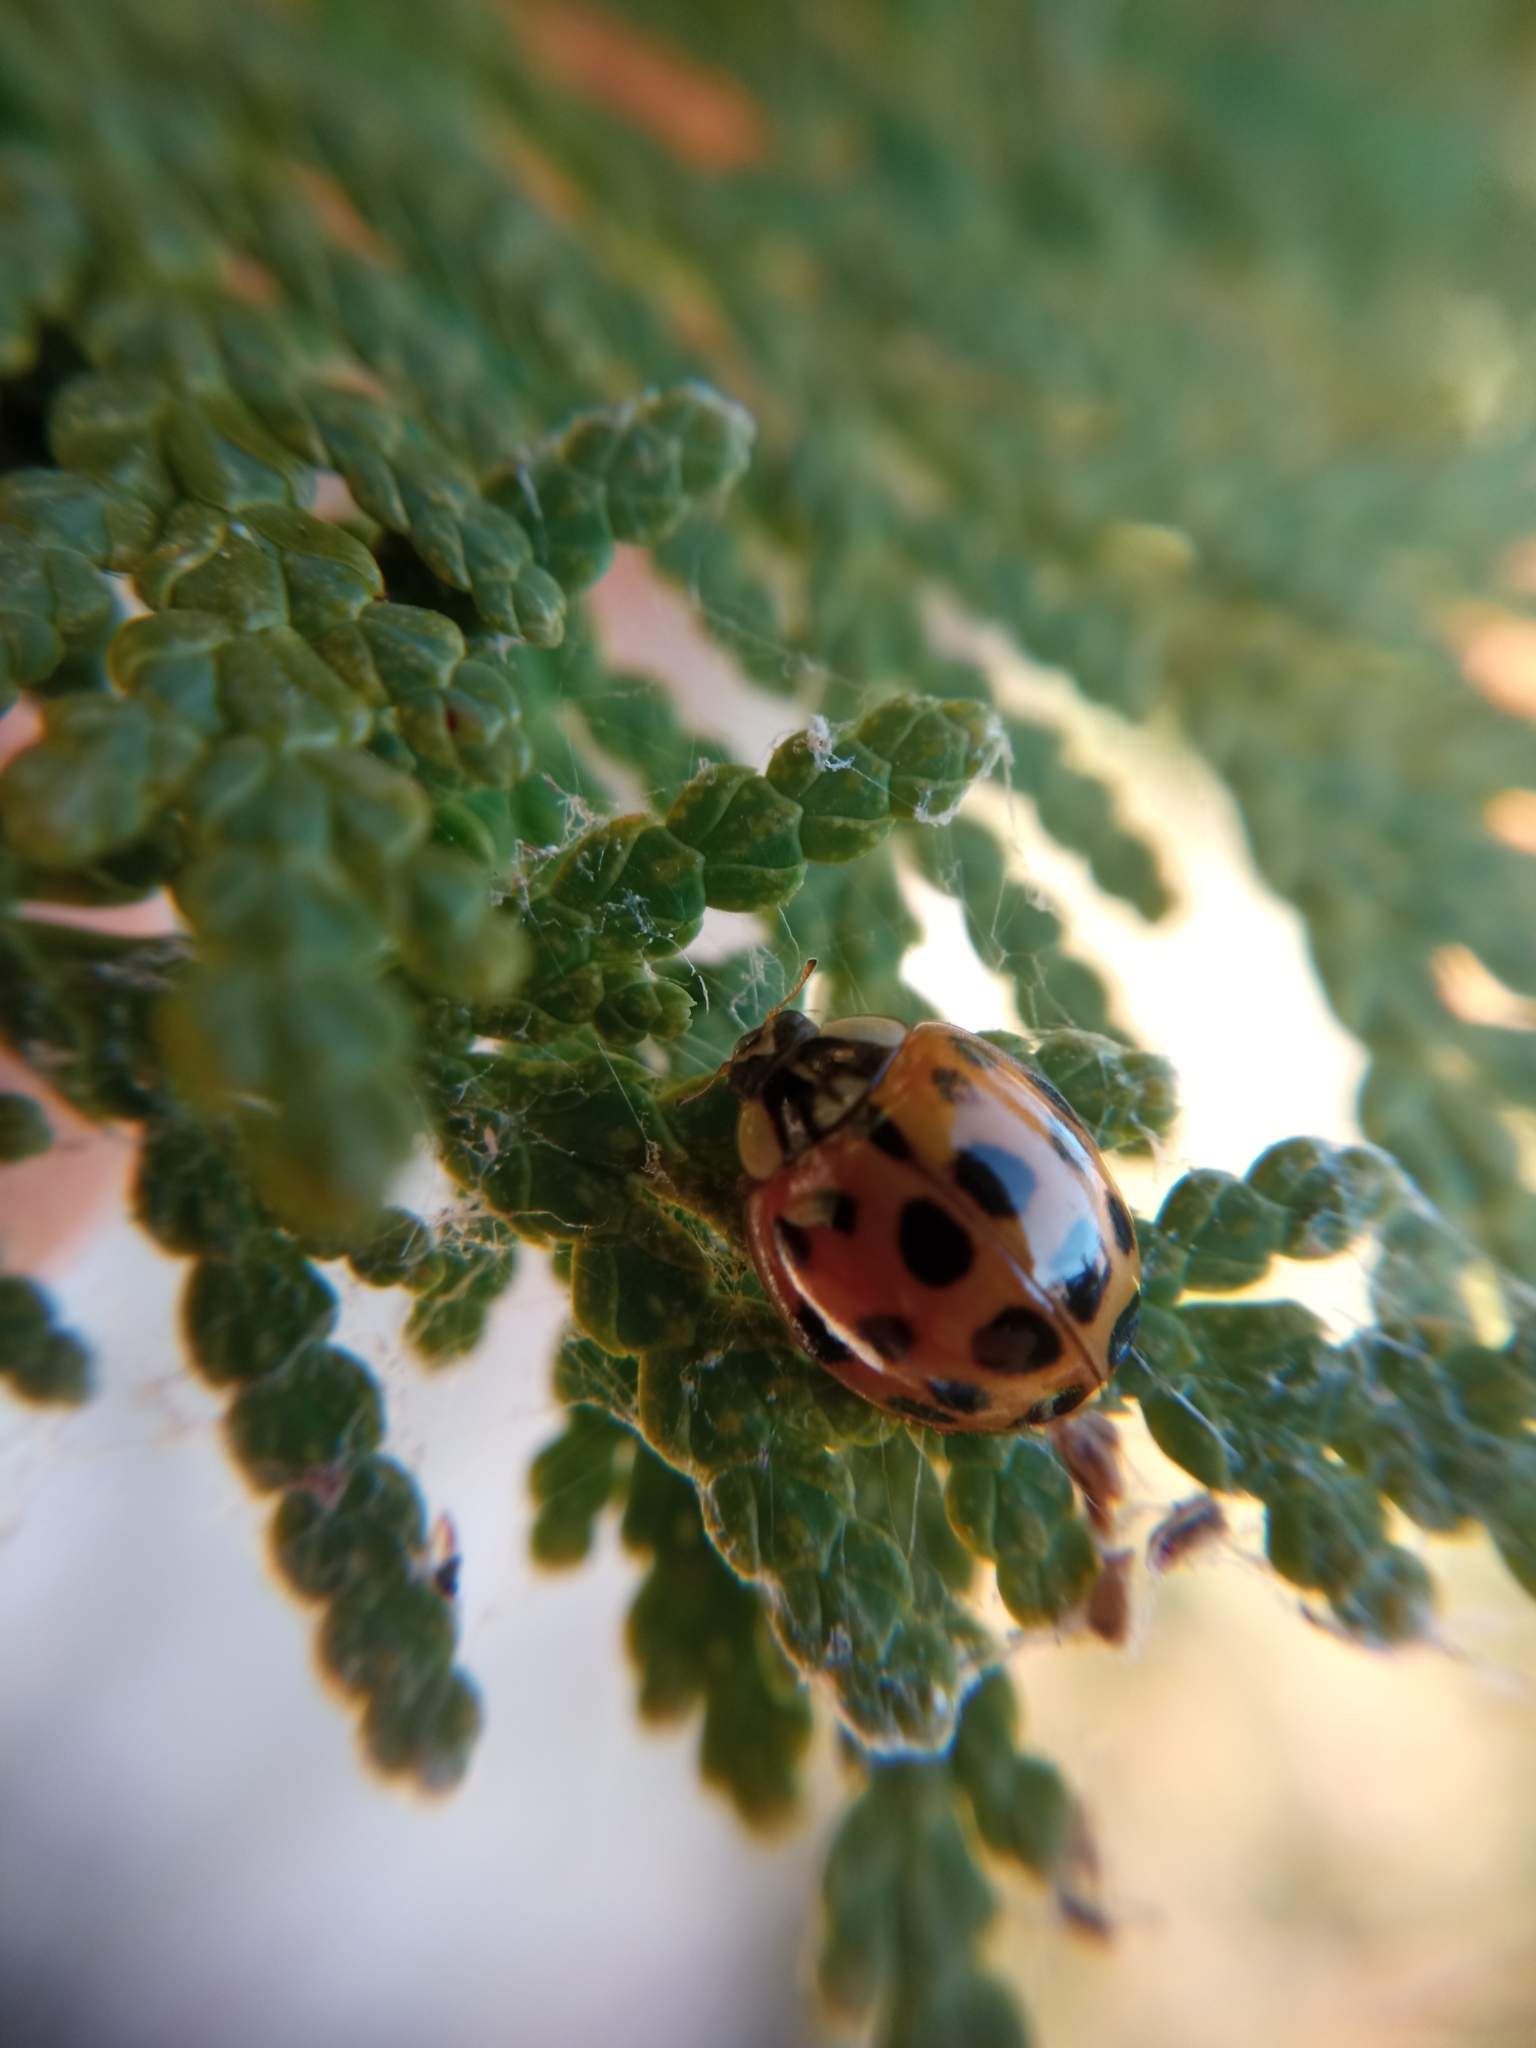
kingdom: Animalia
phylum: Arthropoda
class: Insecta
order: Coleoptera
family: Coccinellidae
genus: Harmonia
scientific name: Harmonia axyridis
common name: Harlequin ladybird
